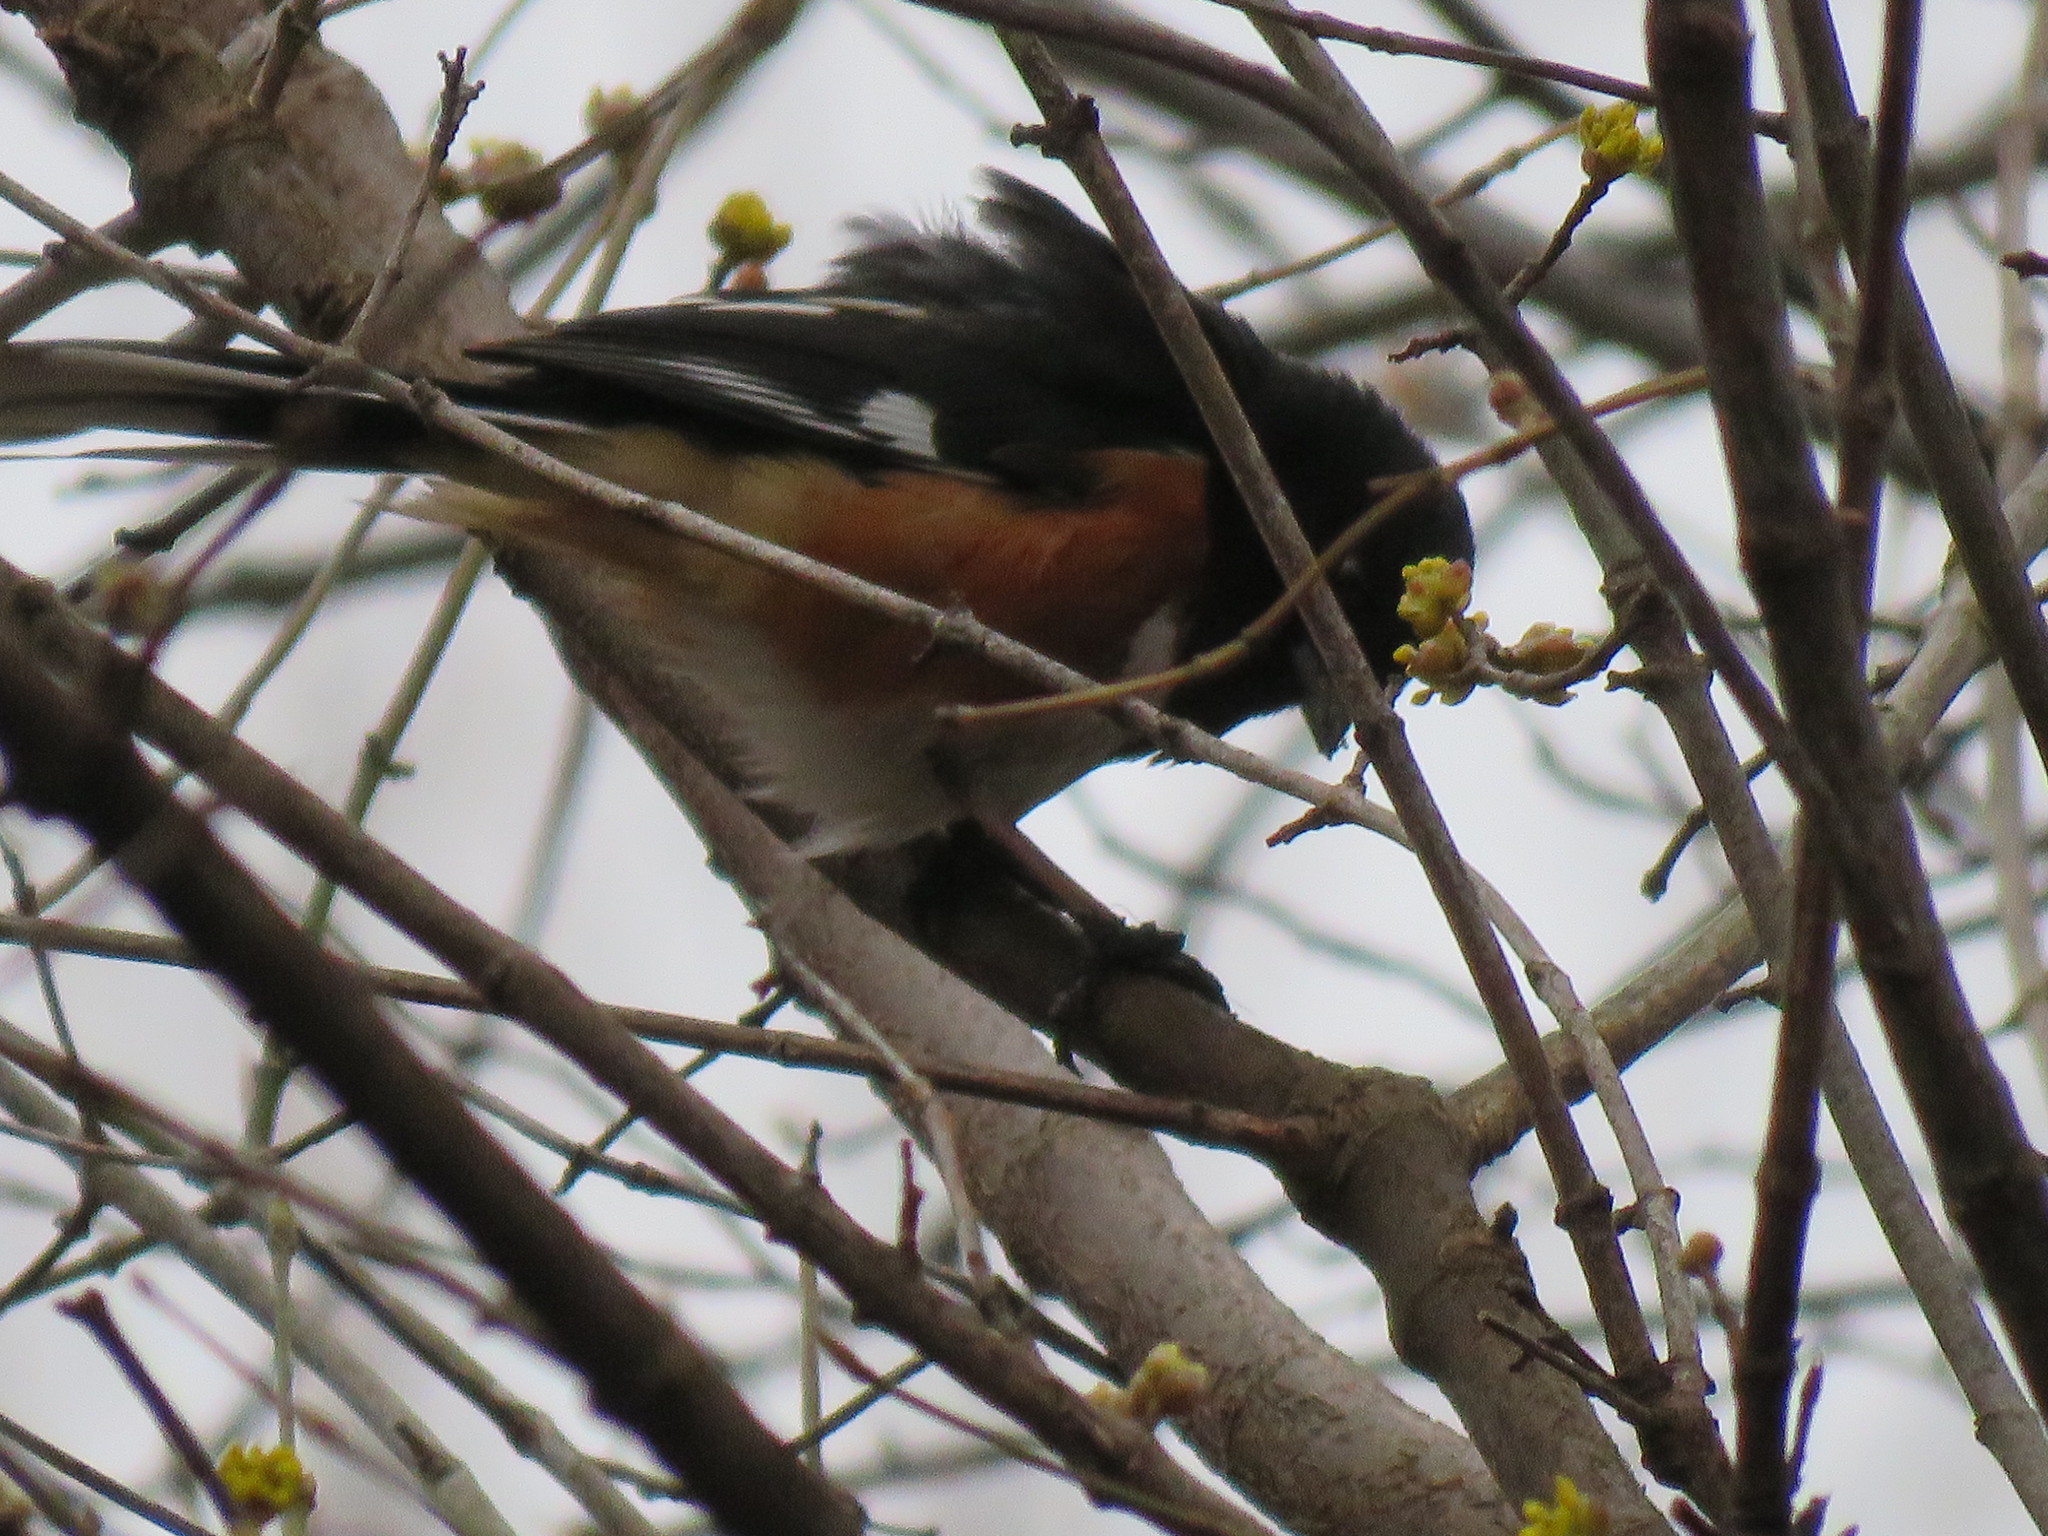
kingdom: Animalia
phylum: Chordata
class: Aves
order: Passeriformes
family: Passerellidae
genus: Pipilo
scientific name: Pipilo erythrophthalmus
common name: Eastern towhee
